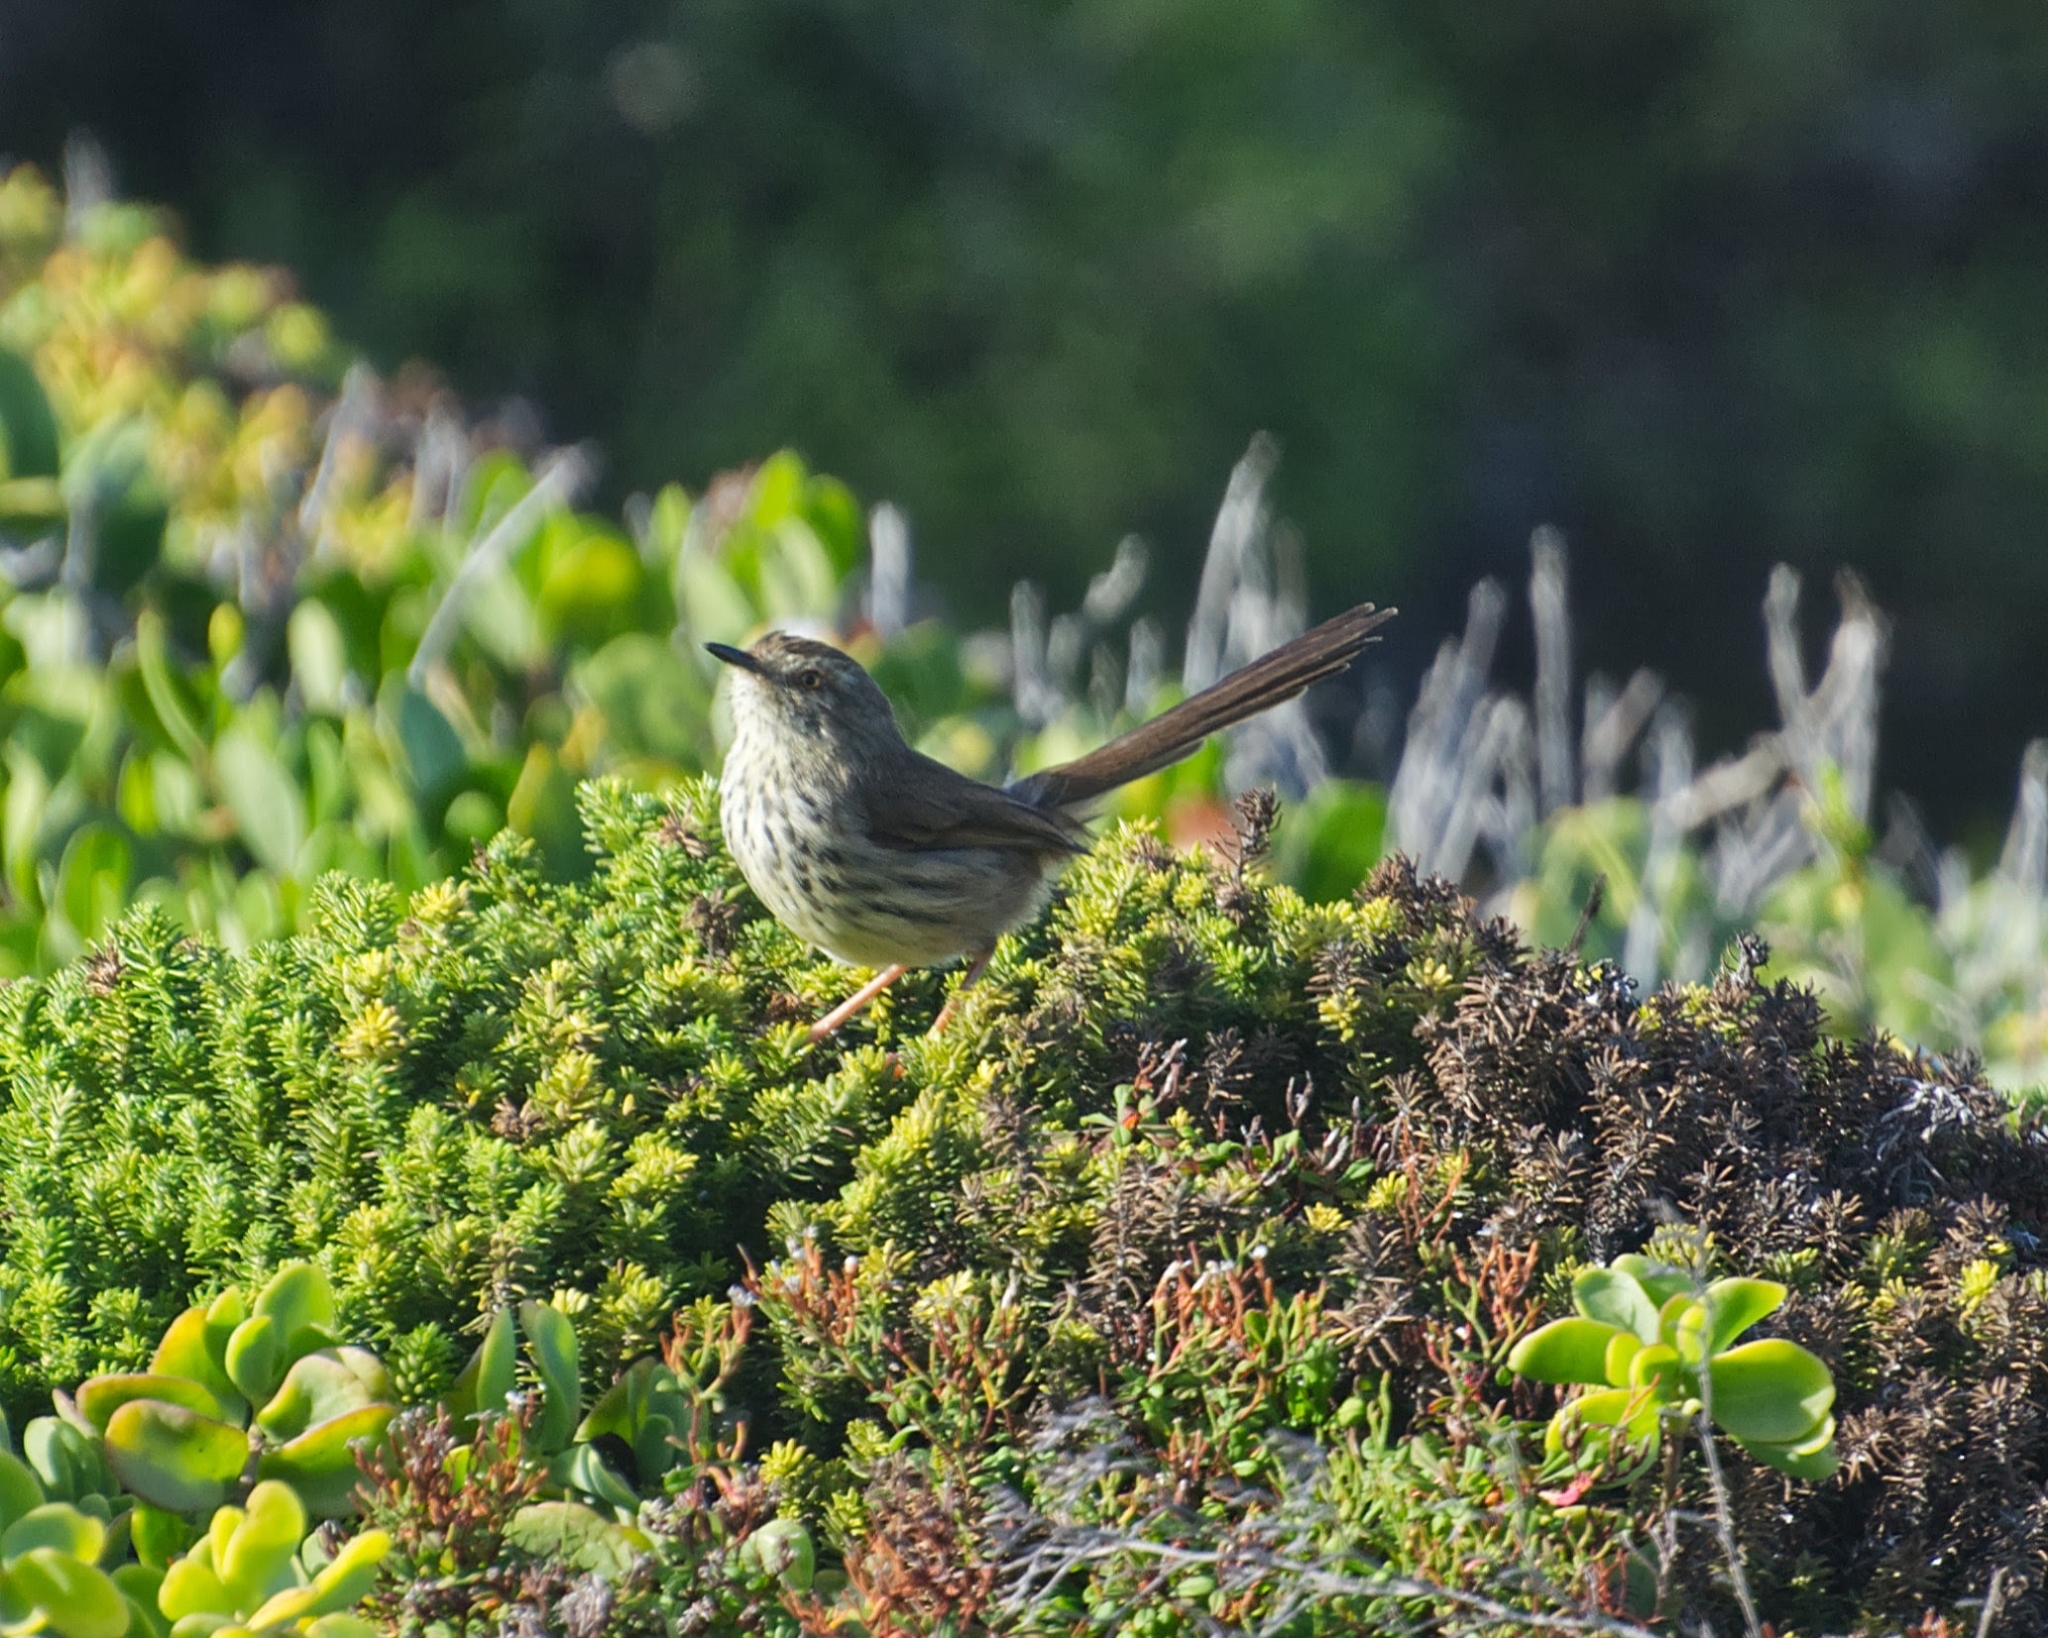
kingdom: Animalia
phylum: Chordata
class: Aves
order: Passeriformes
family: Cisticolidae
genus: Prinia
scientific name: Prinia maculosa
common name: Karoo prinia
